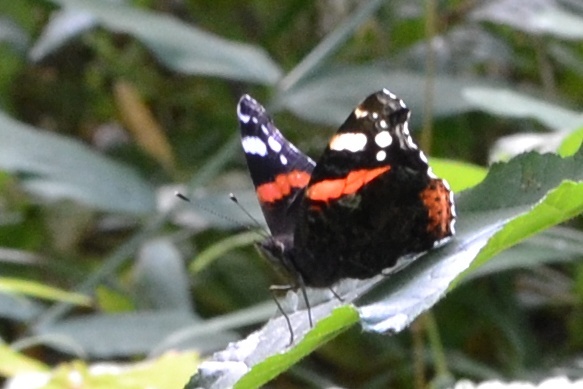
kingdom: Animalia
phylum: Arthropoda
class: Insecta
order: Lepidoptera
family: Nymphalidae
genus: Vanessa
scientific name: Vanessa atalanta
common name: Red admiral
